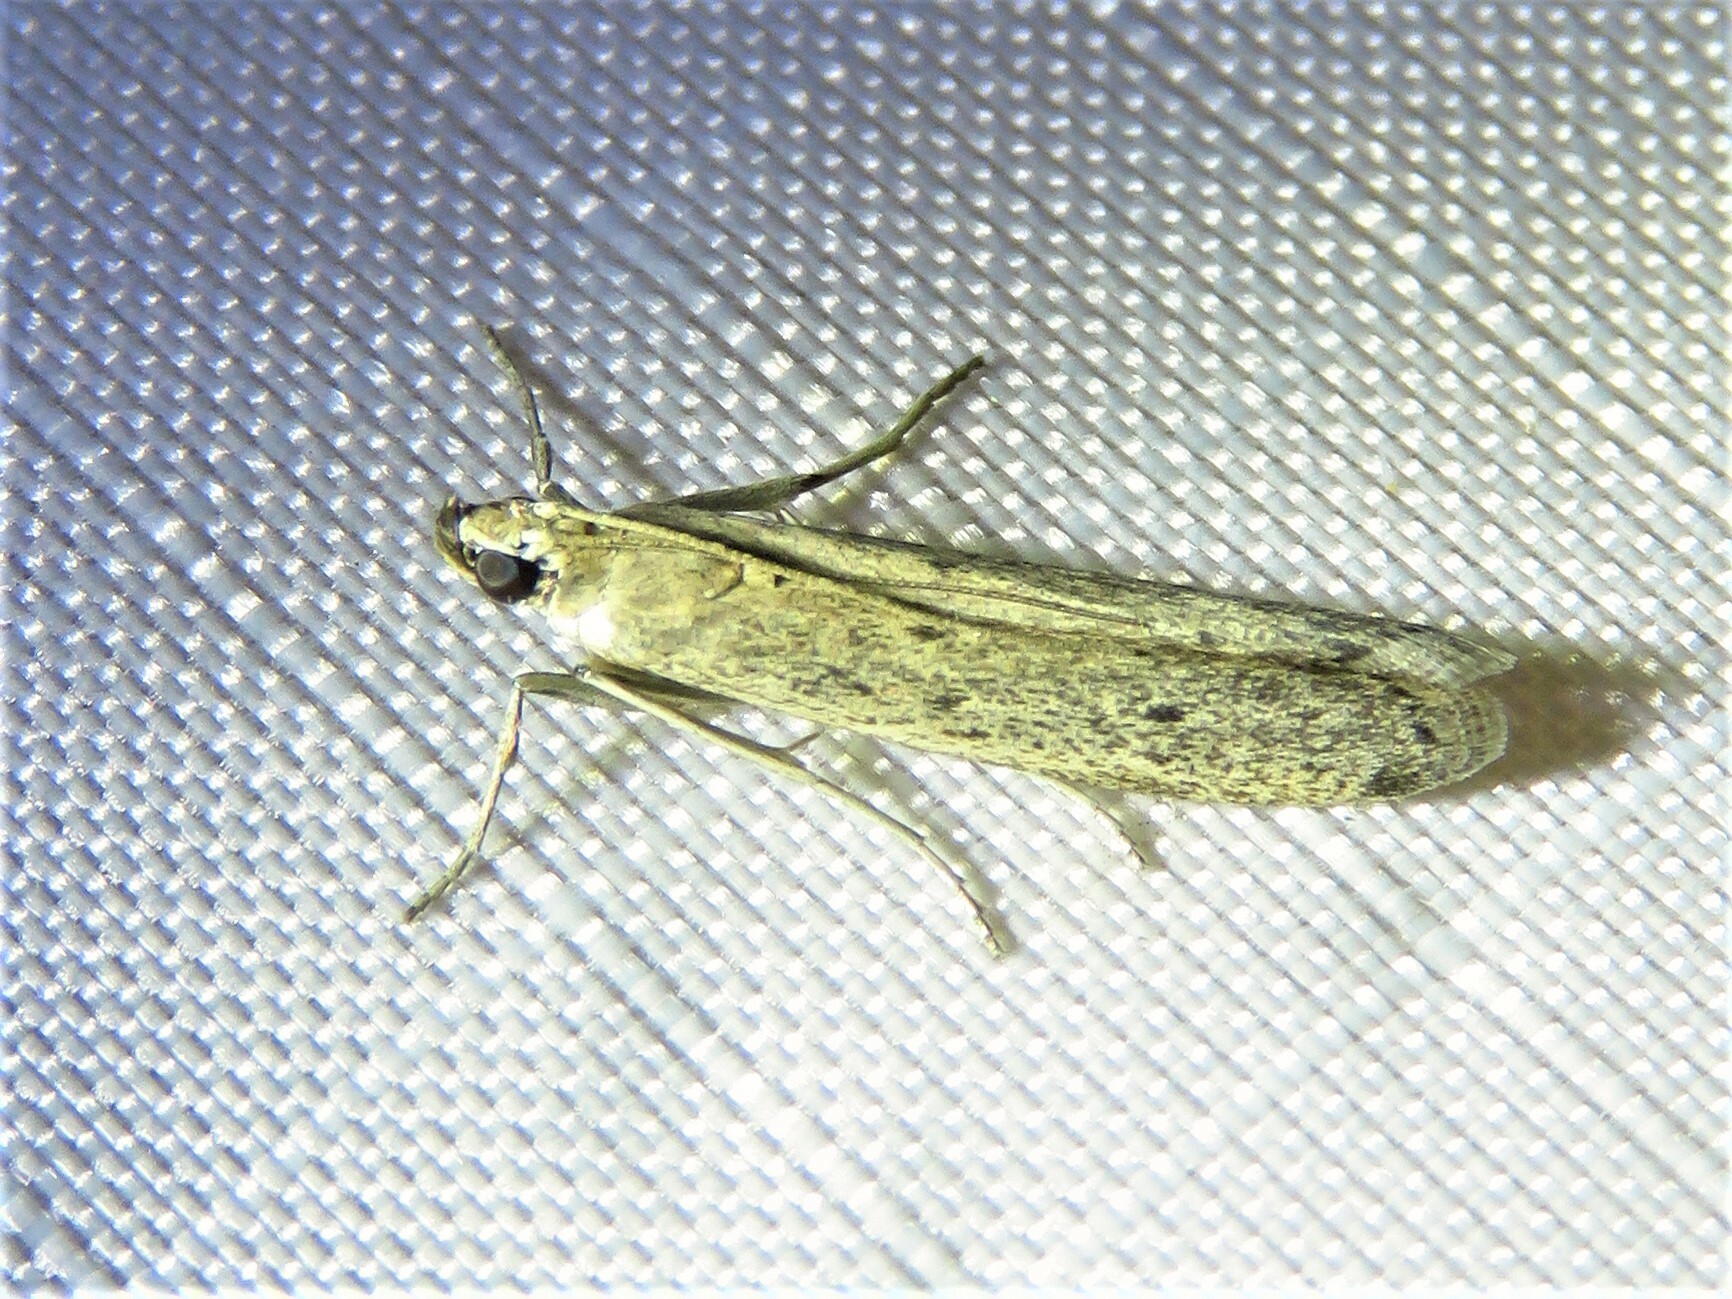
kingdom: Animalia
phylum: Arthropoda
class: Insecta
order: Lepidoptera
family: Pyralidae
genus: Homoeosoma
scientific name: Homoeosoma electella
